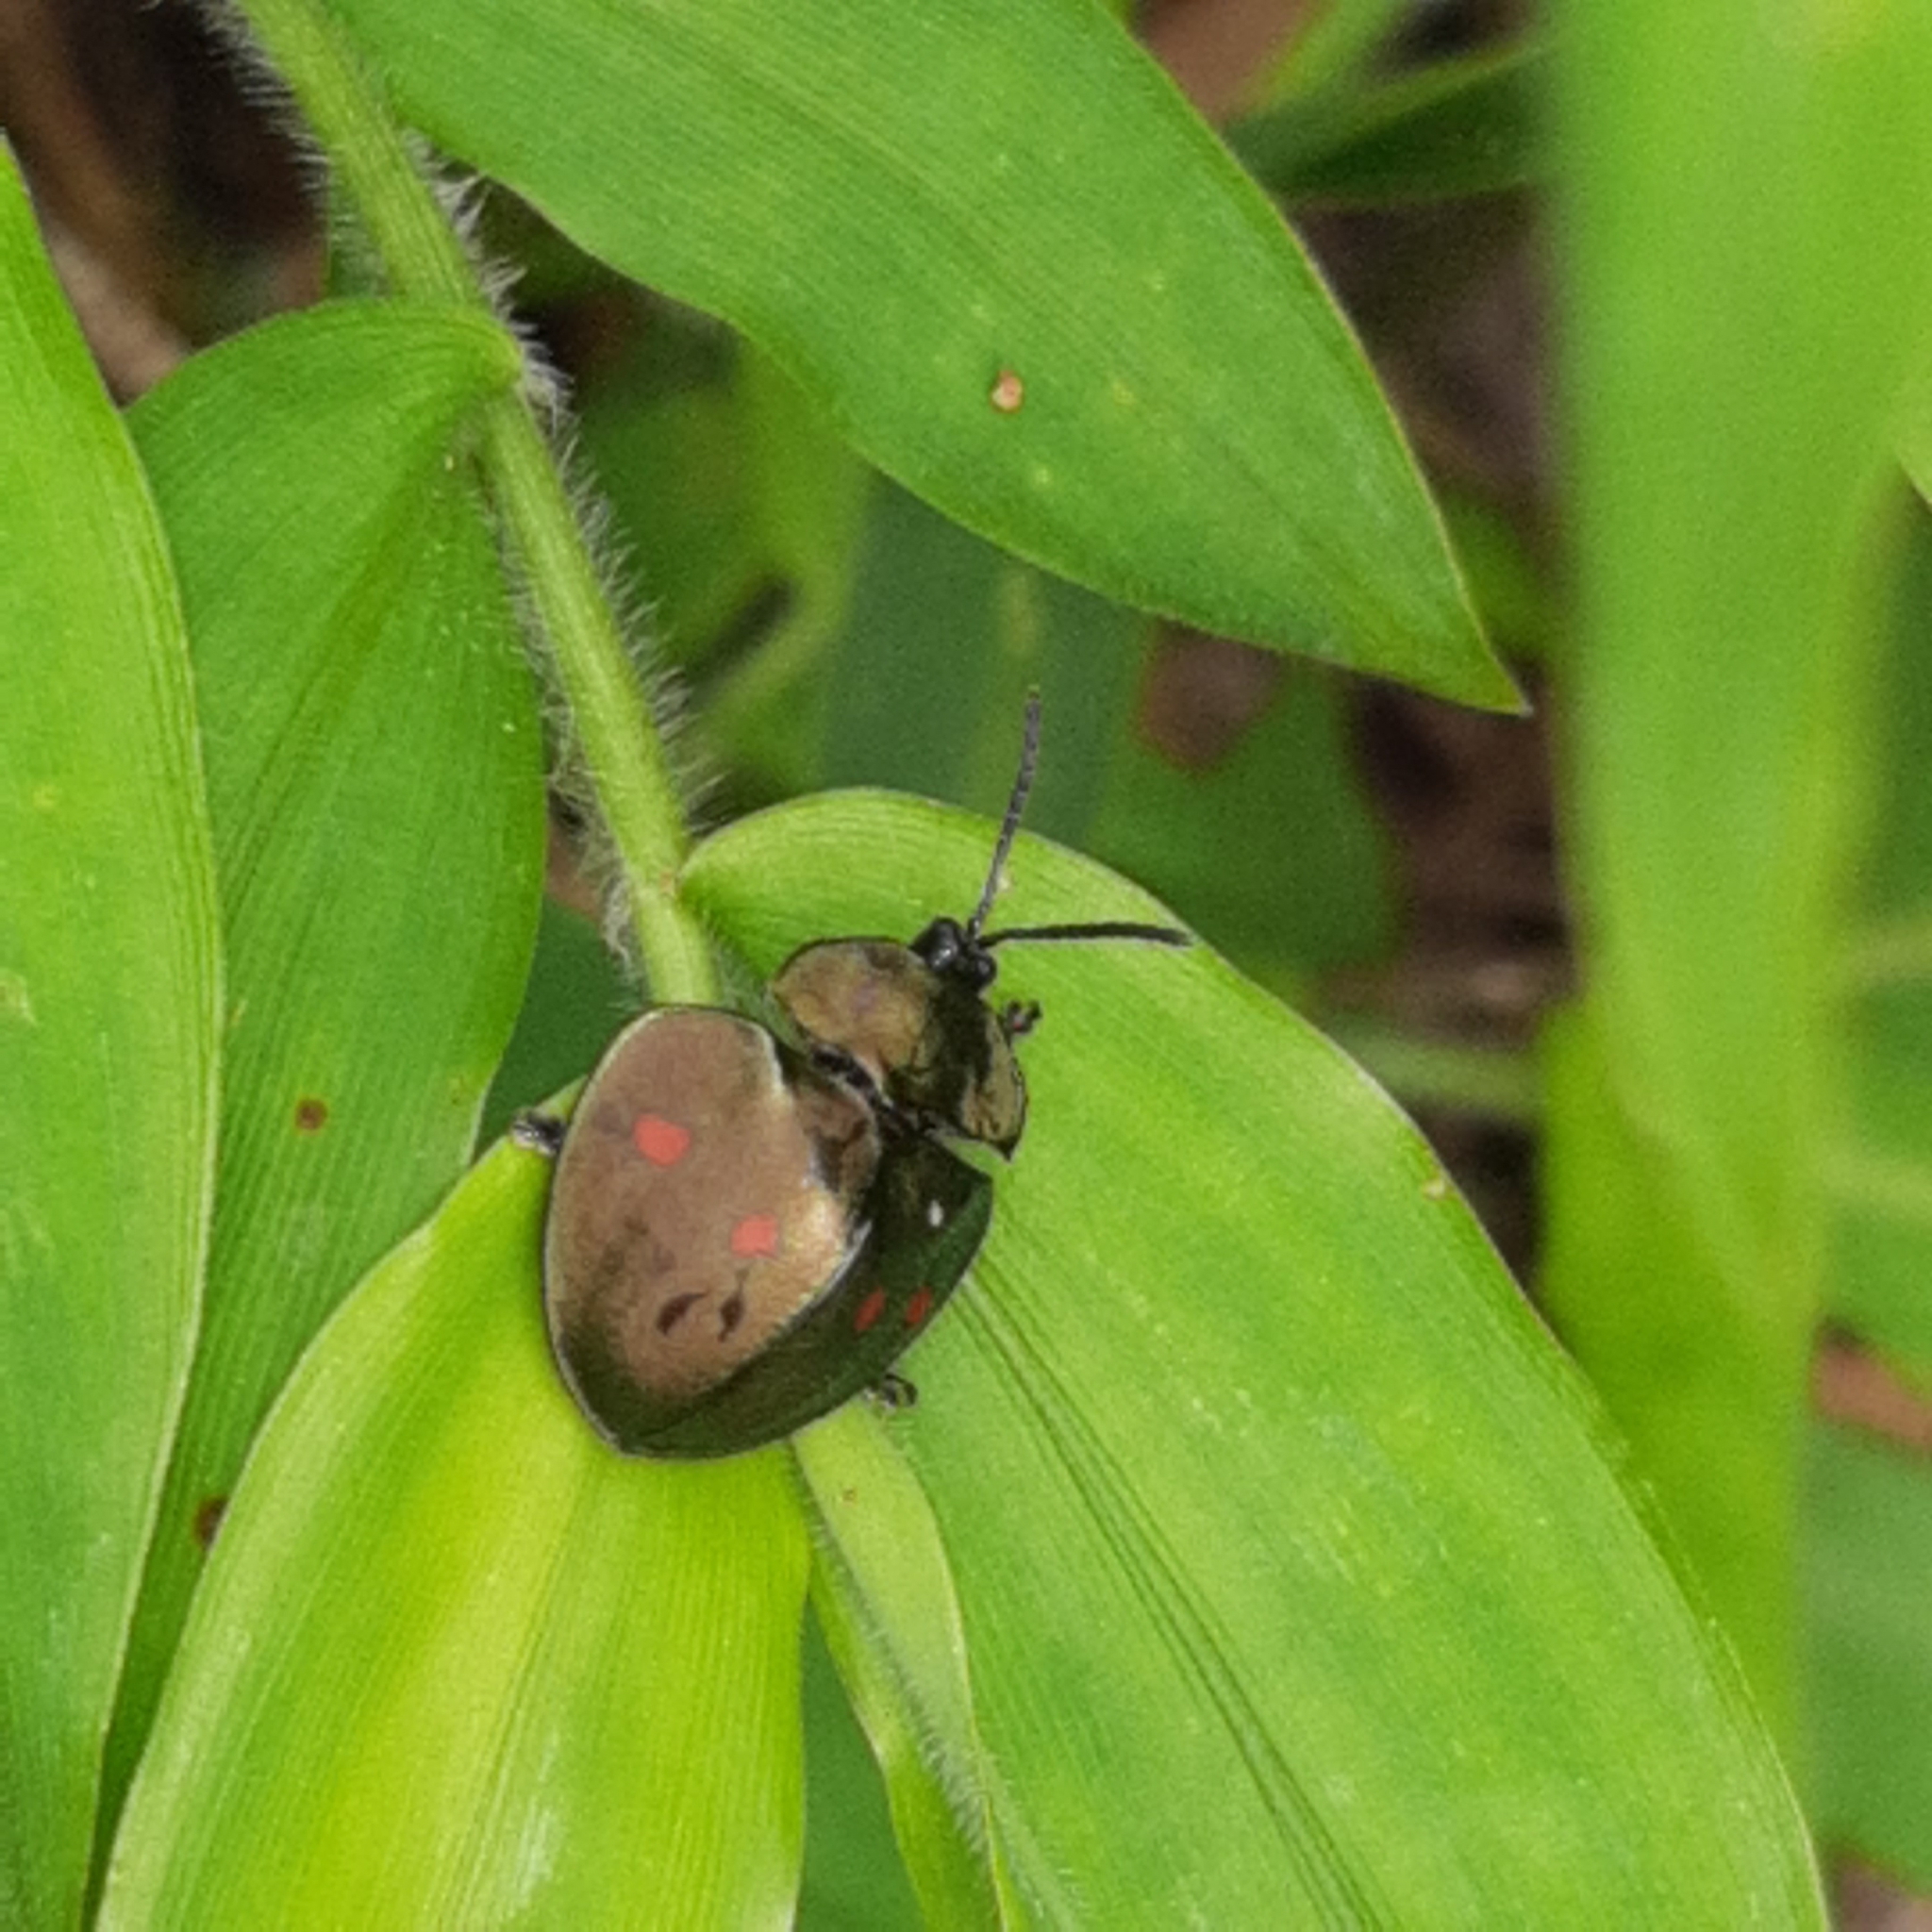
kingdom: Animalia
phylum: Arthropoda
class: Insecta
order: Coleoptera
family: Chrysomelidae
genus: Stolas
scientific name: Stolas lebasii
